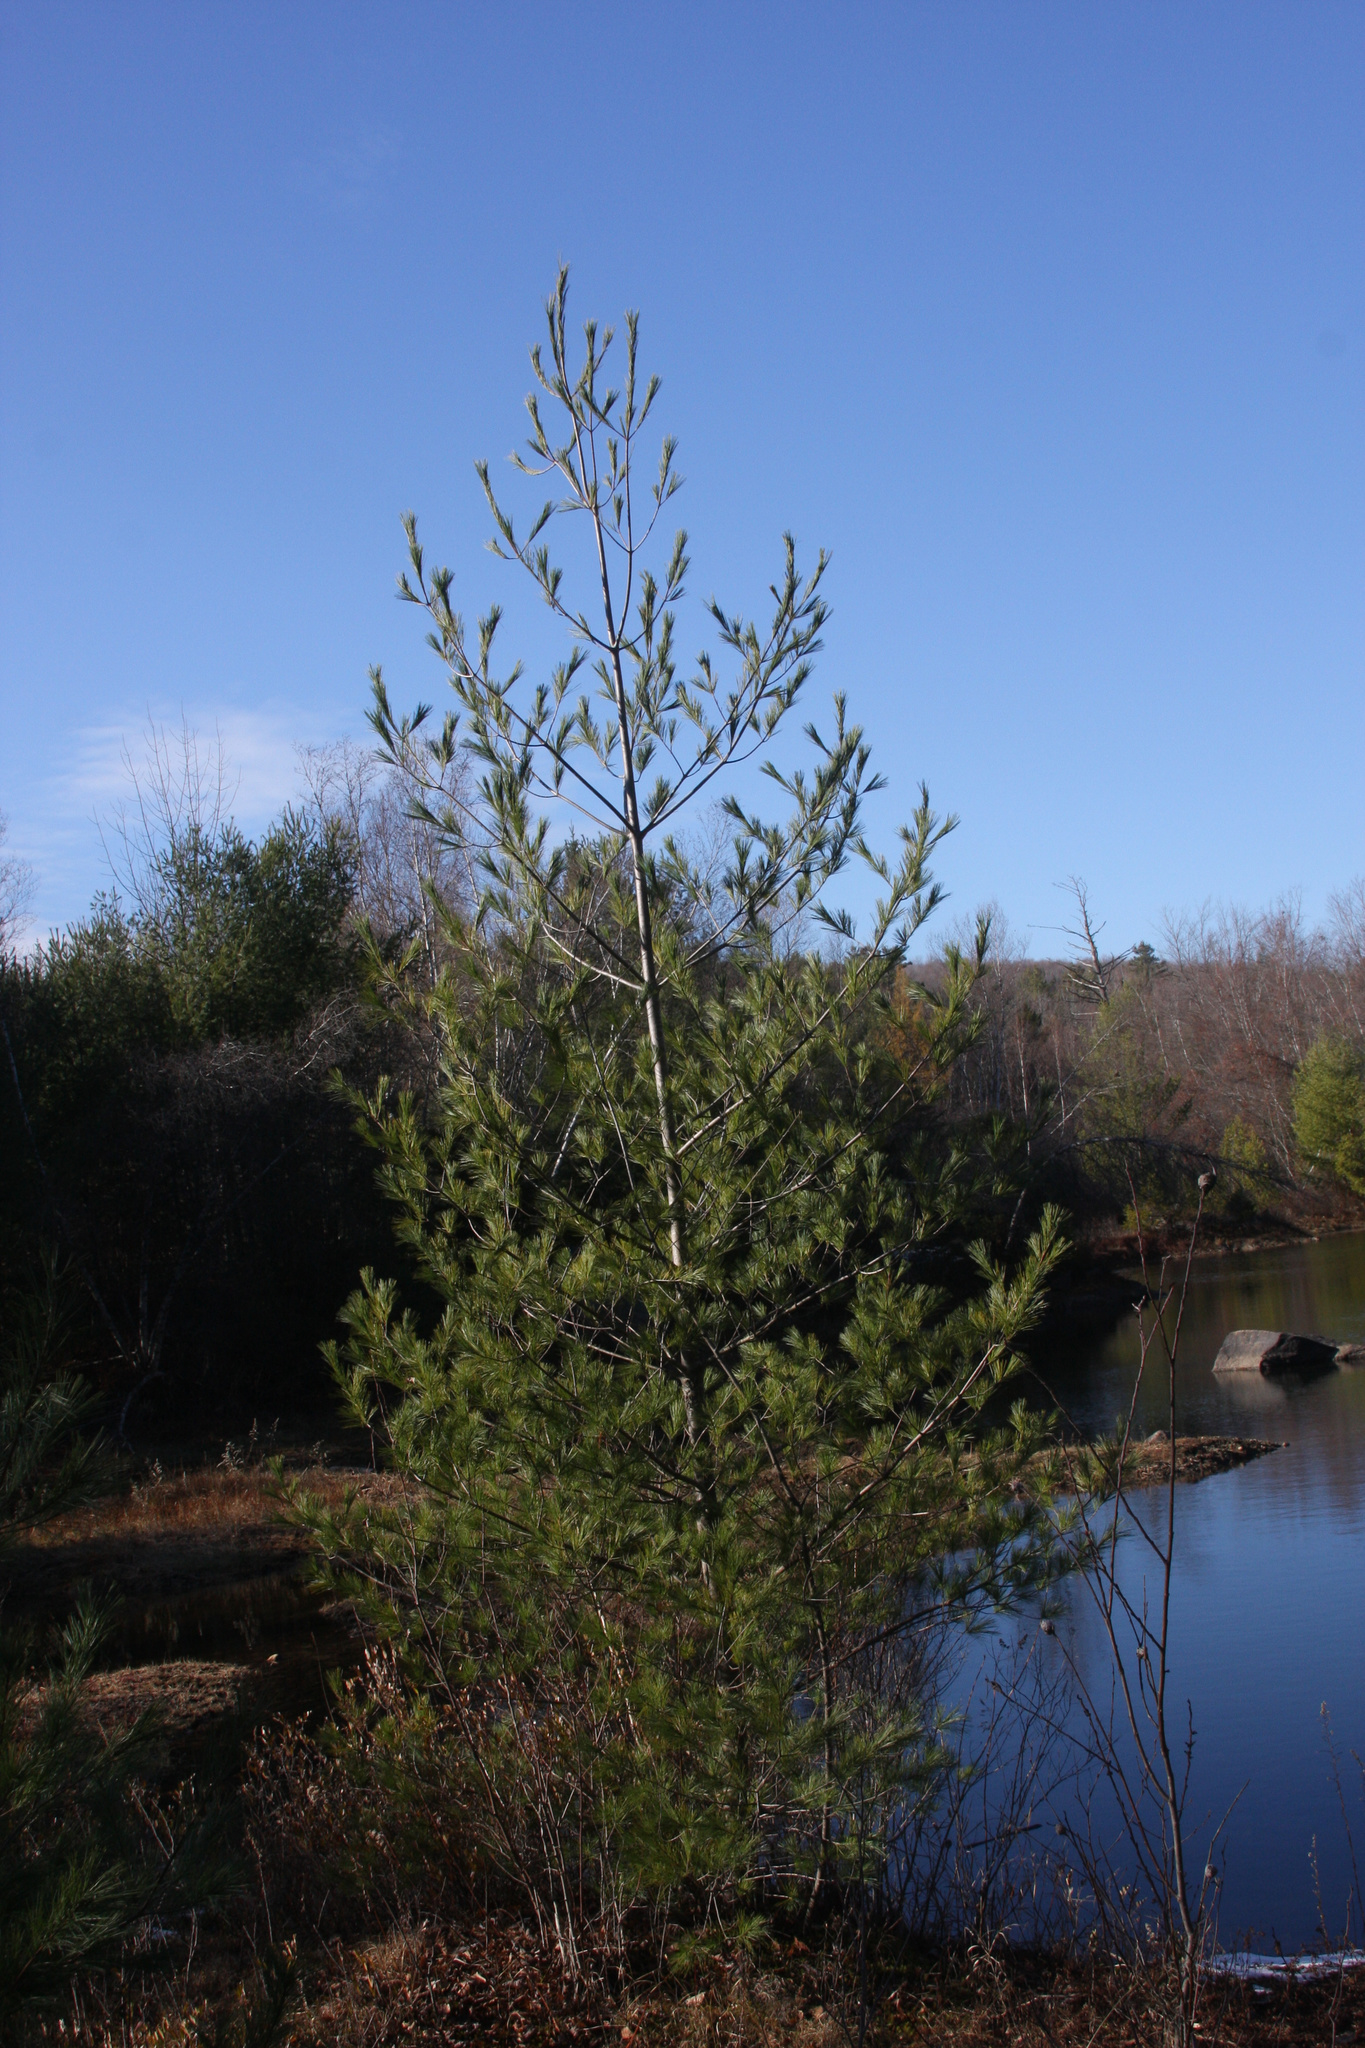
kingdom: Plantae
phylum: Tracheophyta
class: Pinopsida
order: Pinales
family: Pinaceae
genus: Pinus
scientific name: Pinus strobus
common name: Weymouth pine
